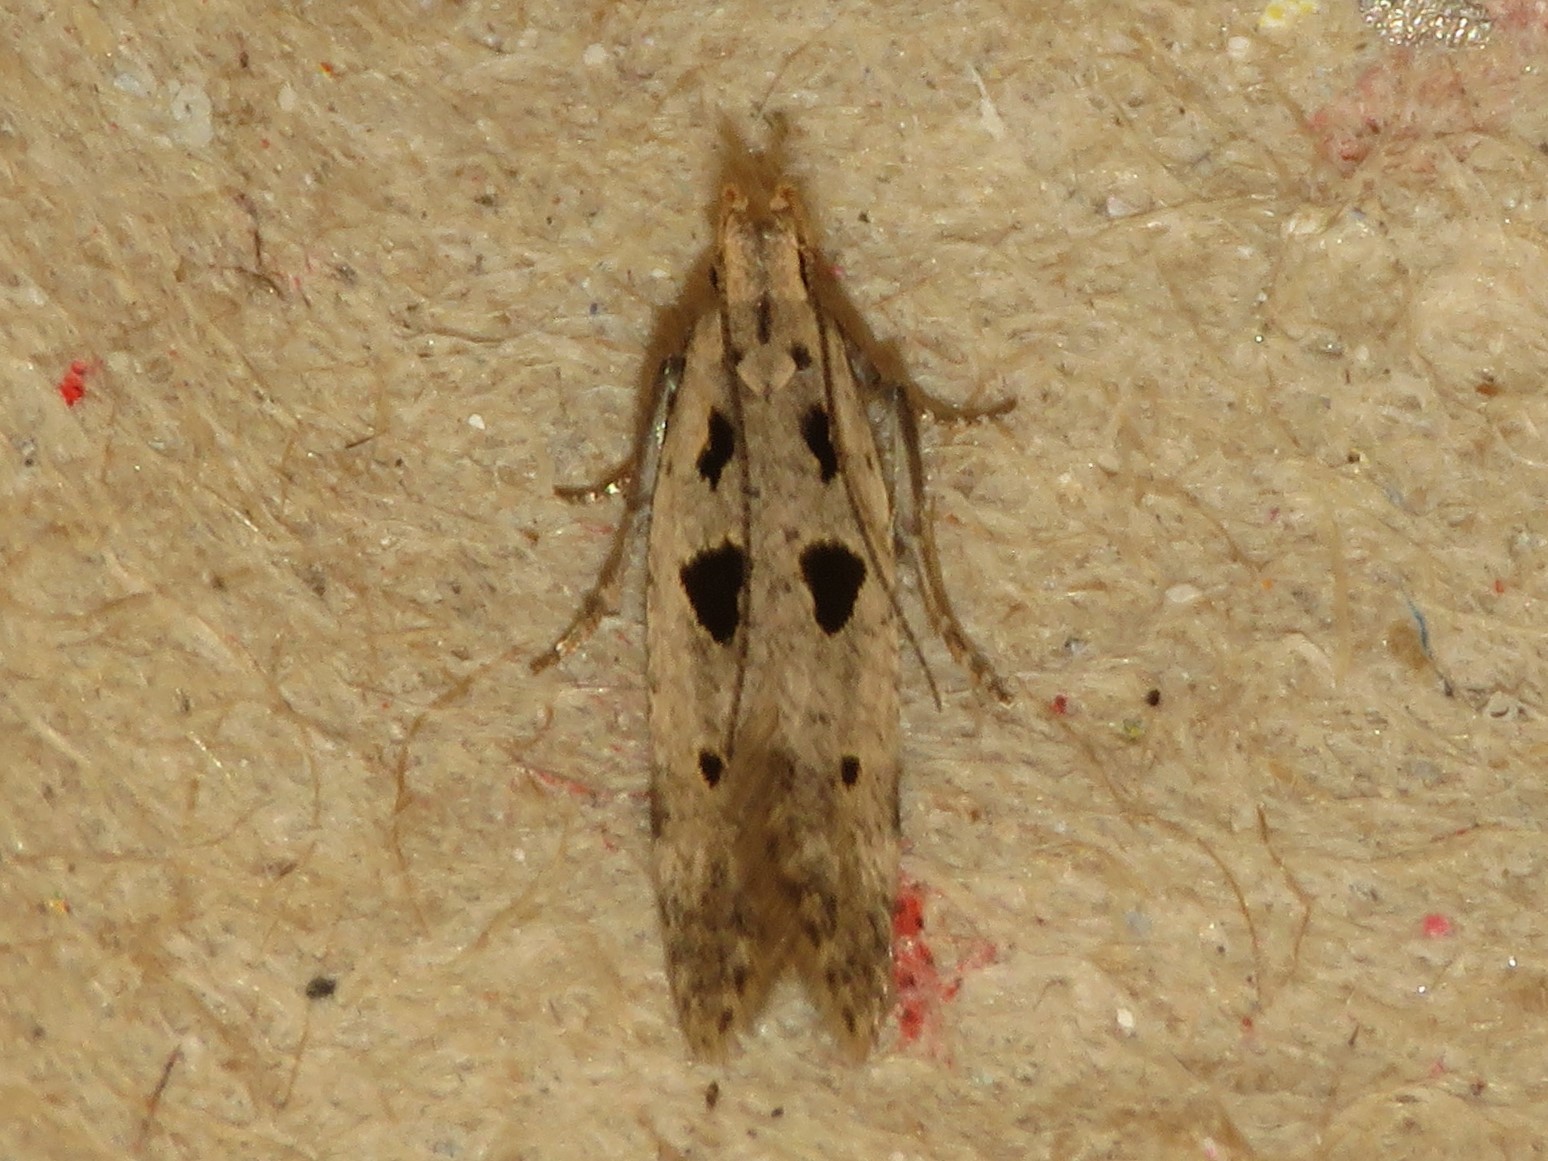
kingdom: Animalia
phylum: Arthropoda
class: Insecta
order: Lepidoptera
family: Gelechiidae
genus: Deltophora
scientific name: Deltophora sella
